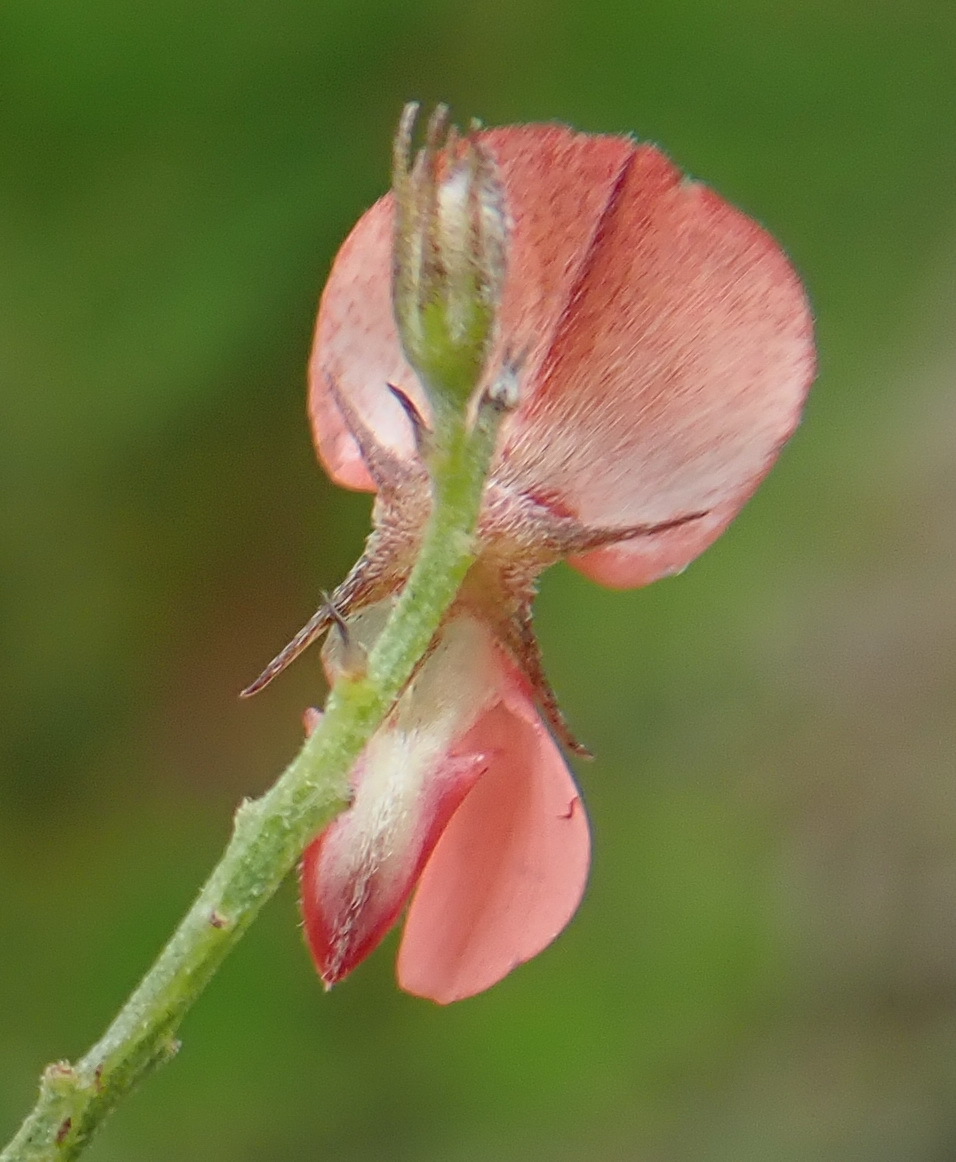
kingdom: Plantae
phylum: Tracheophyta
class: Magnoliopsida
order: Fabales
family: Fabaceae
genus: Indigofera
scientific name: Indigofera priorii
